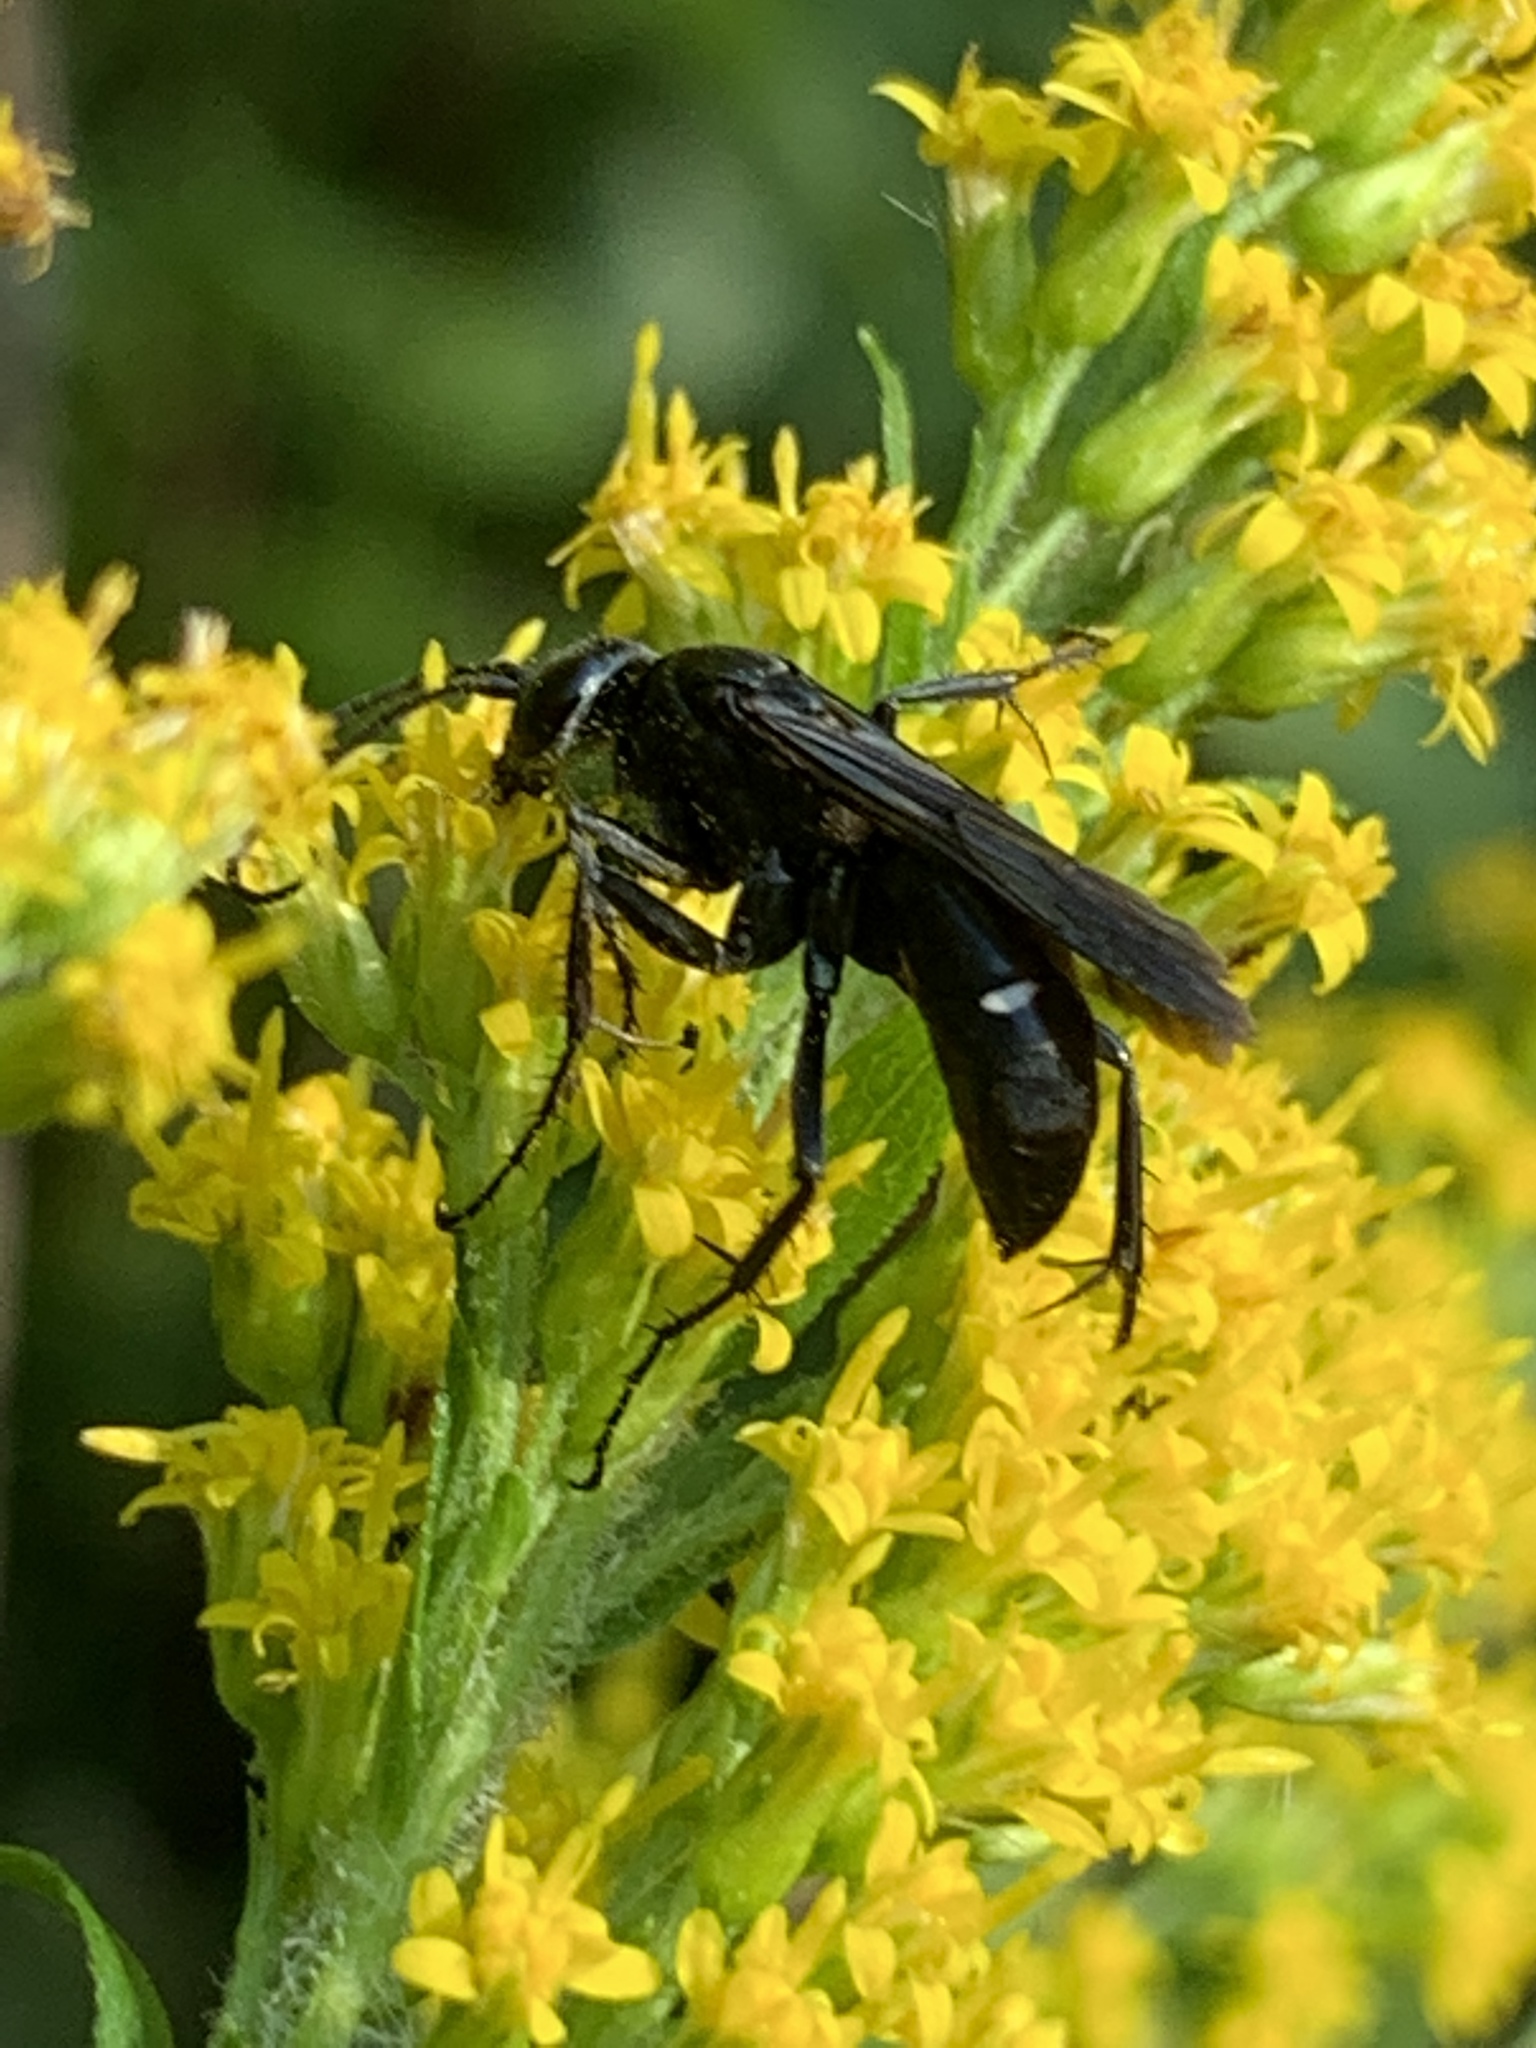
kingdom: Animalia
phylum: Arthropoda
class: Insecta
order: Hymenoptera
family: Pompilidae
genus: Episyron
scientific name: Episyron biguttatus
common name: Two-spotted spider wasp
